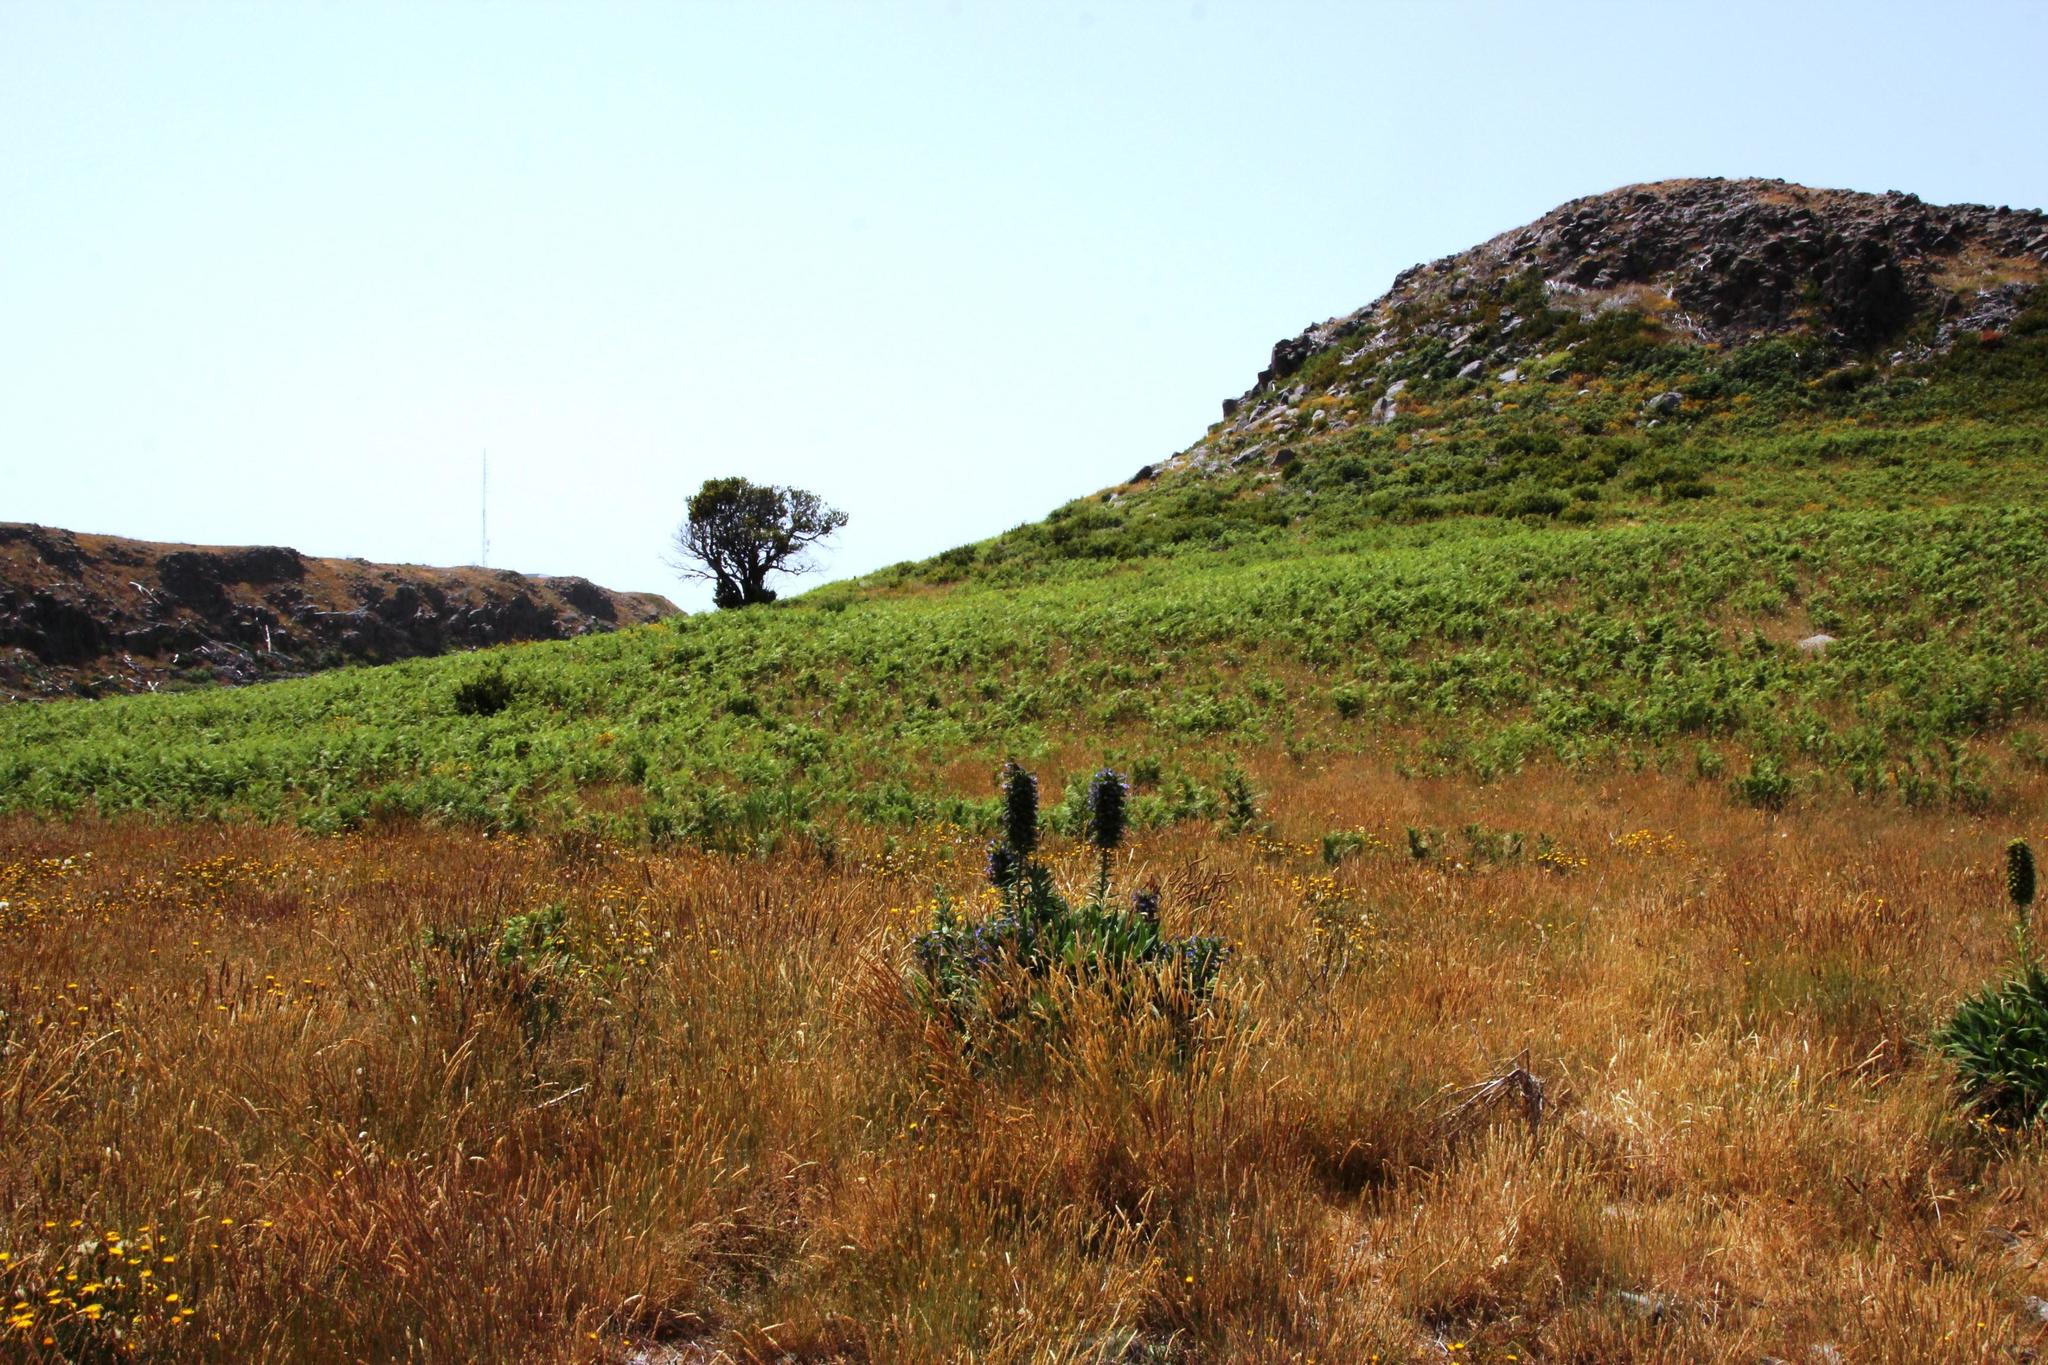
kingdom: Plantae
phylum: Tracheophyta
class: Magnoliopsida
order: Boraginales
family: Boraginaceae
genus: Echium
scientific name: Echium candicans
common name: Pride of madeira
